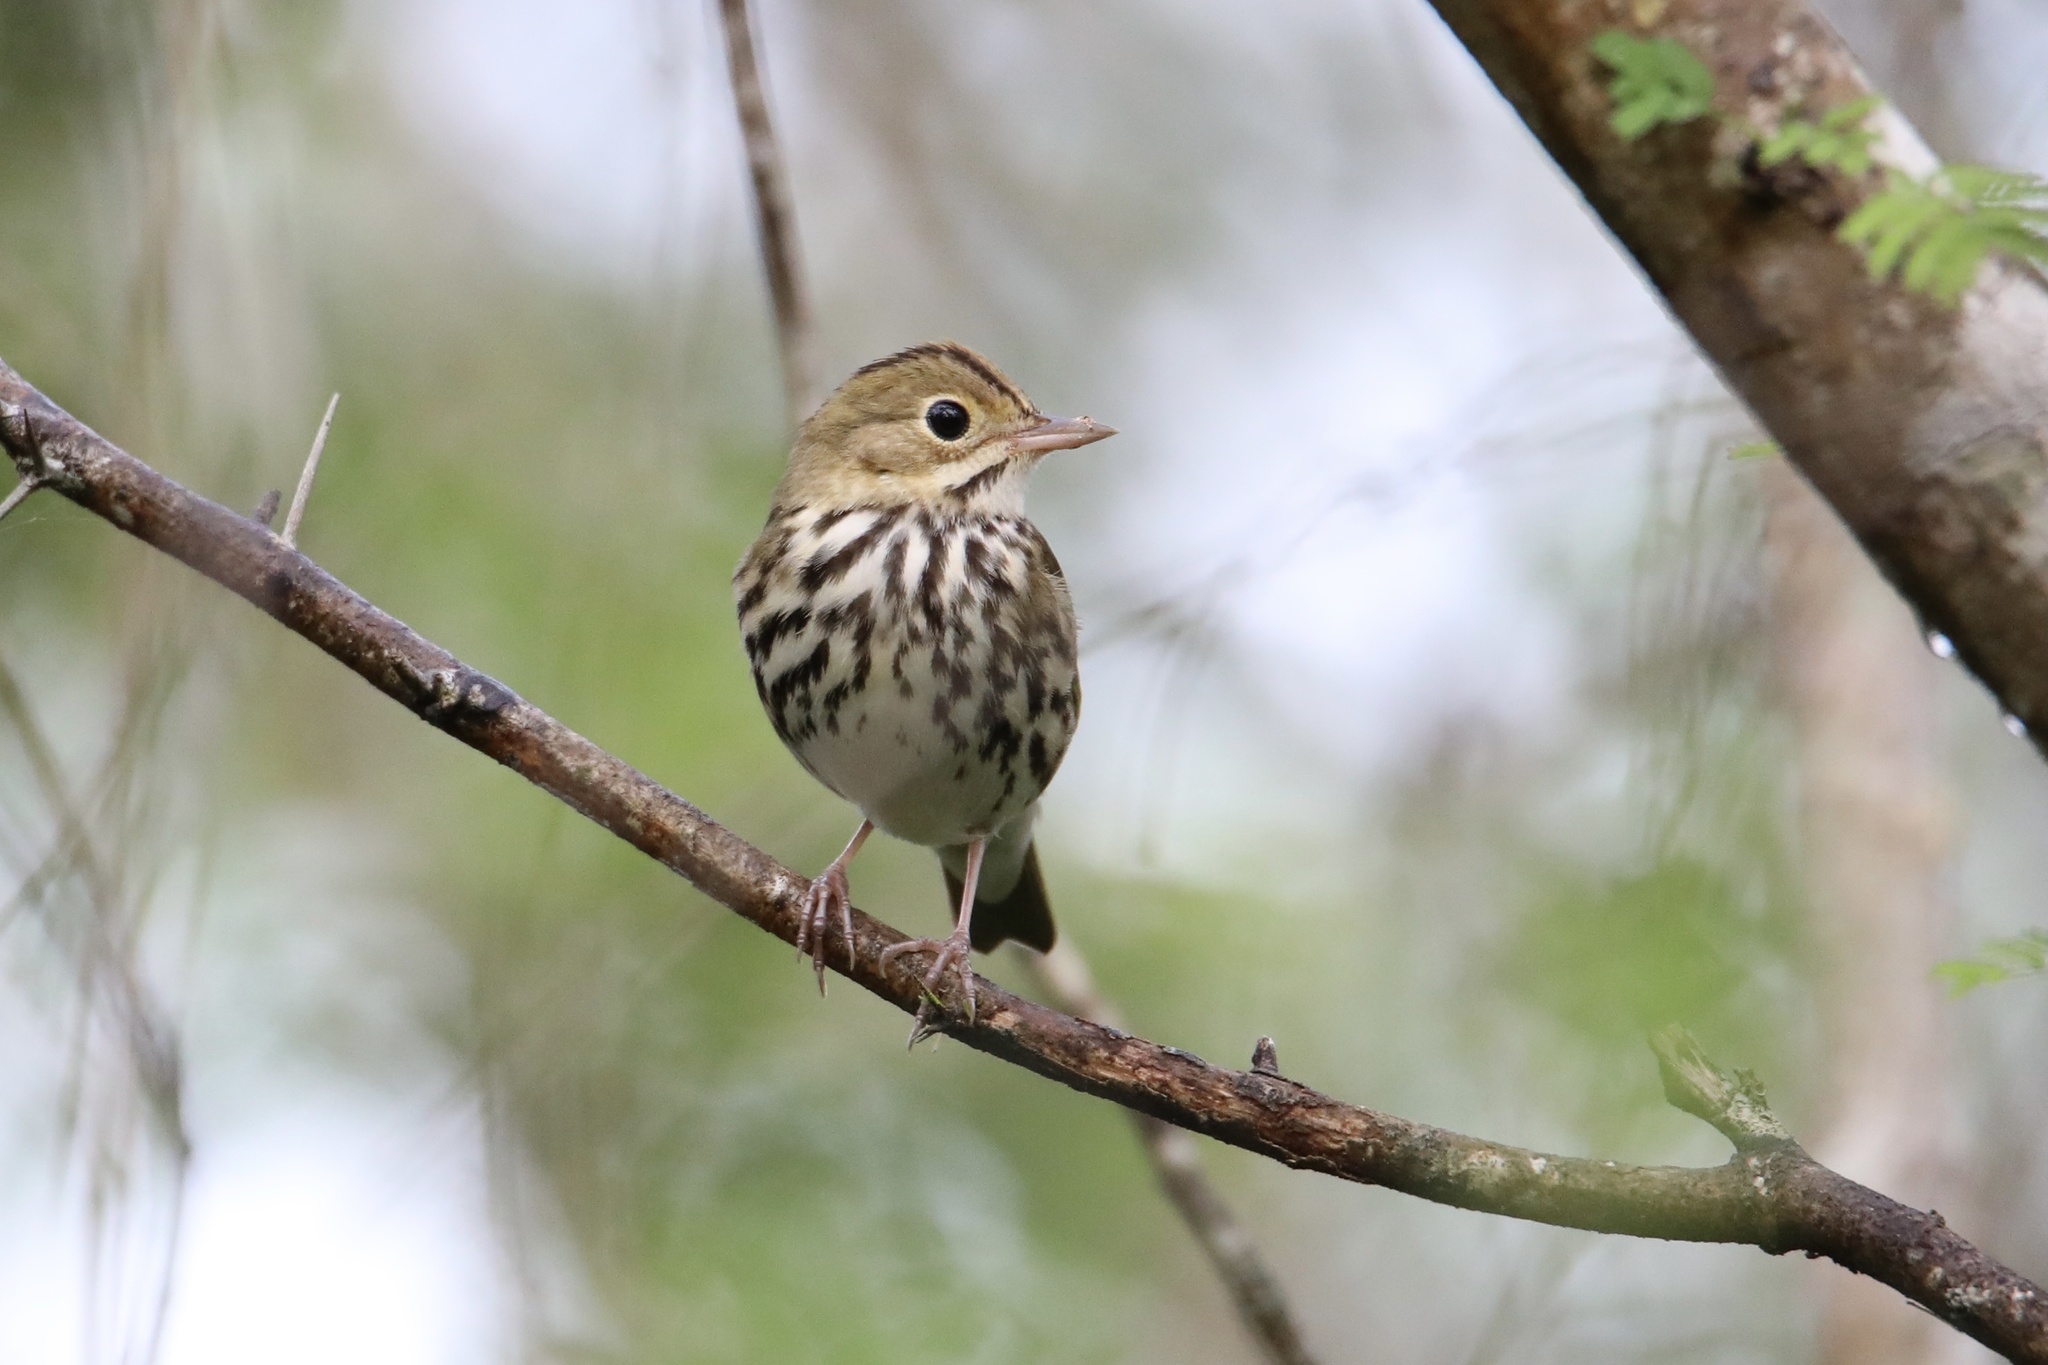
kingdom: Animalia
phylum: Chordata
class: Aves
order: Passeriformes
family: Parulidae
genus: Seiurus
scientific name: Seiurus aurocapilla
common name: Ovenbird
